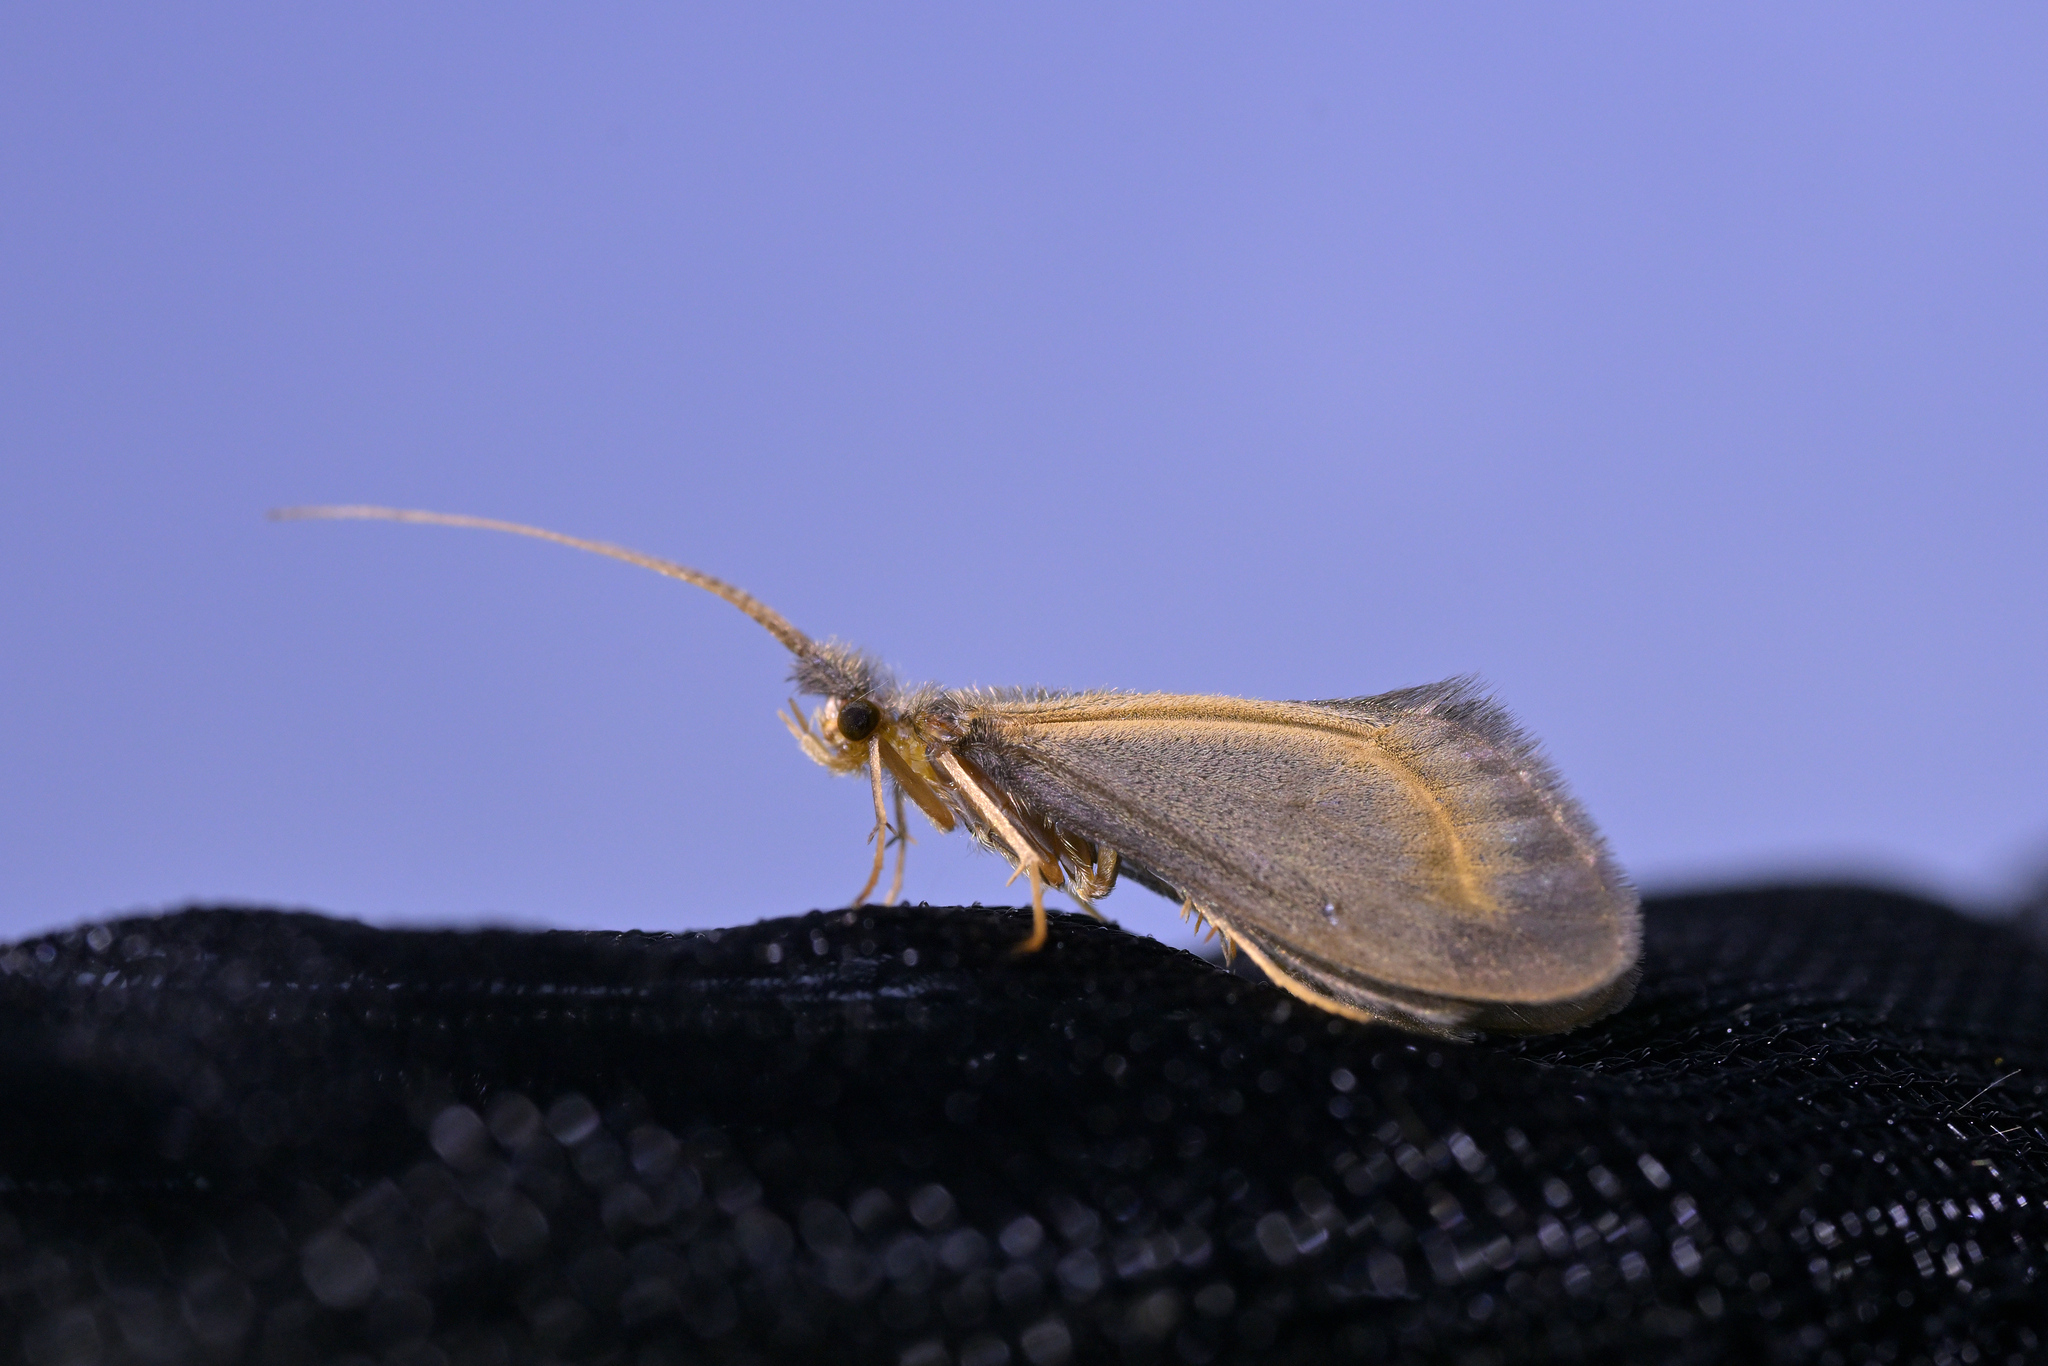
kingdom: Animalia
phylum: Arthropoda
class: Insecta
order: Trichoptera
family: Conoesucidae
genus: Olinga
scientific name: Olinga feredayi
